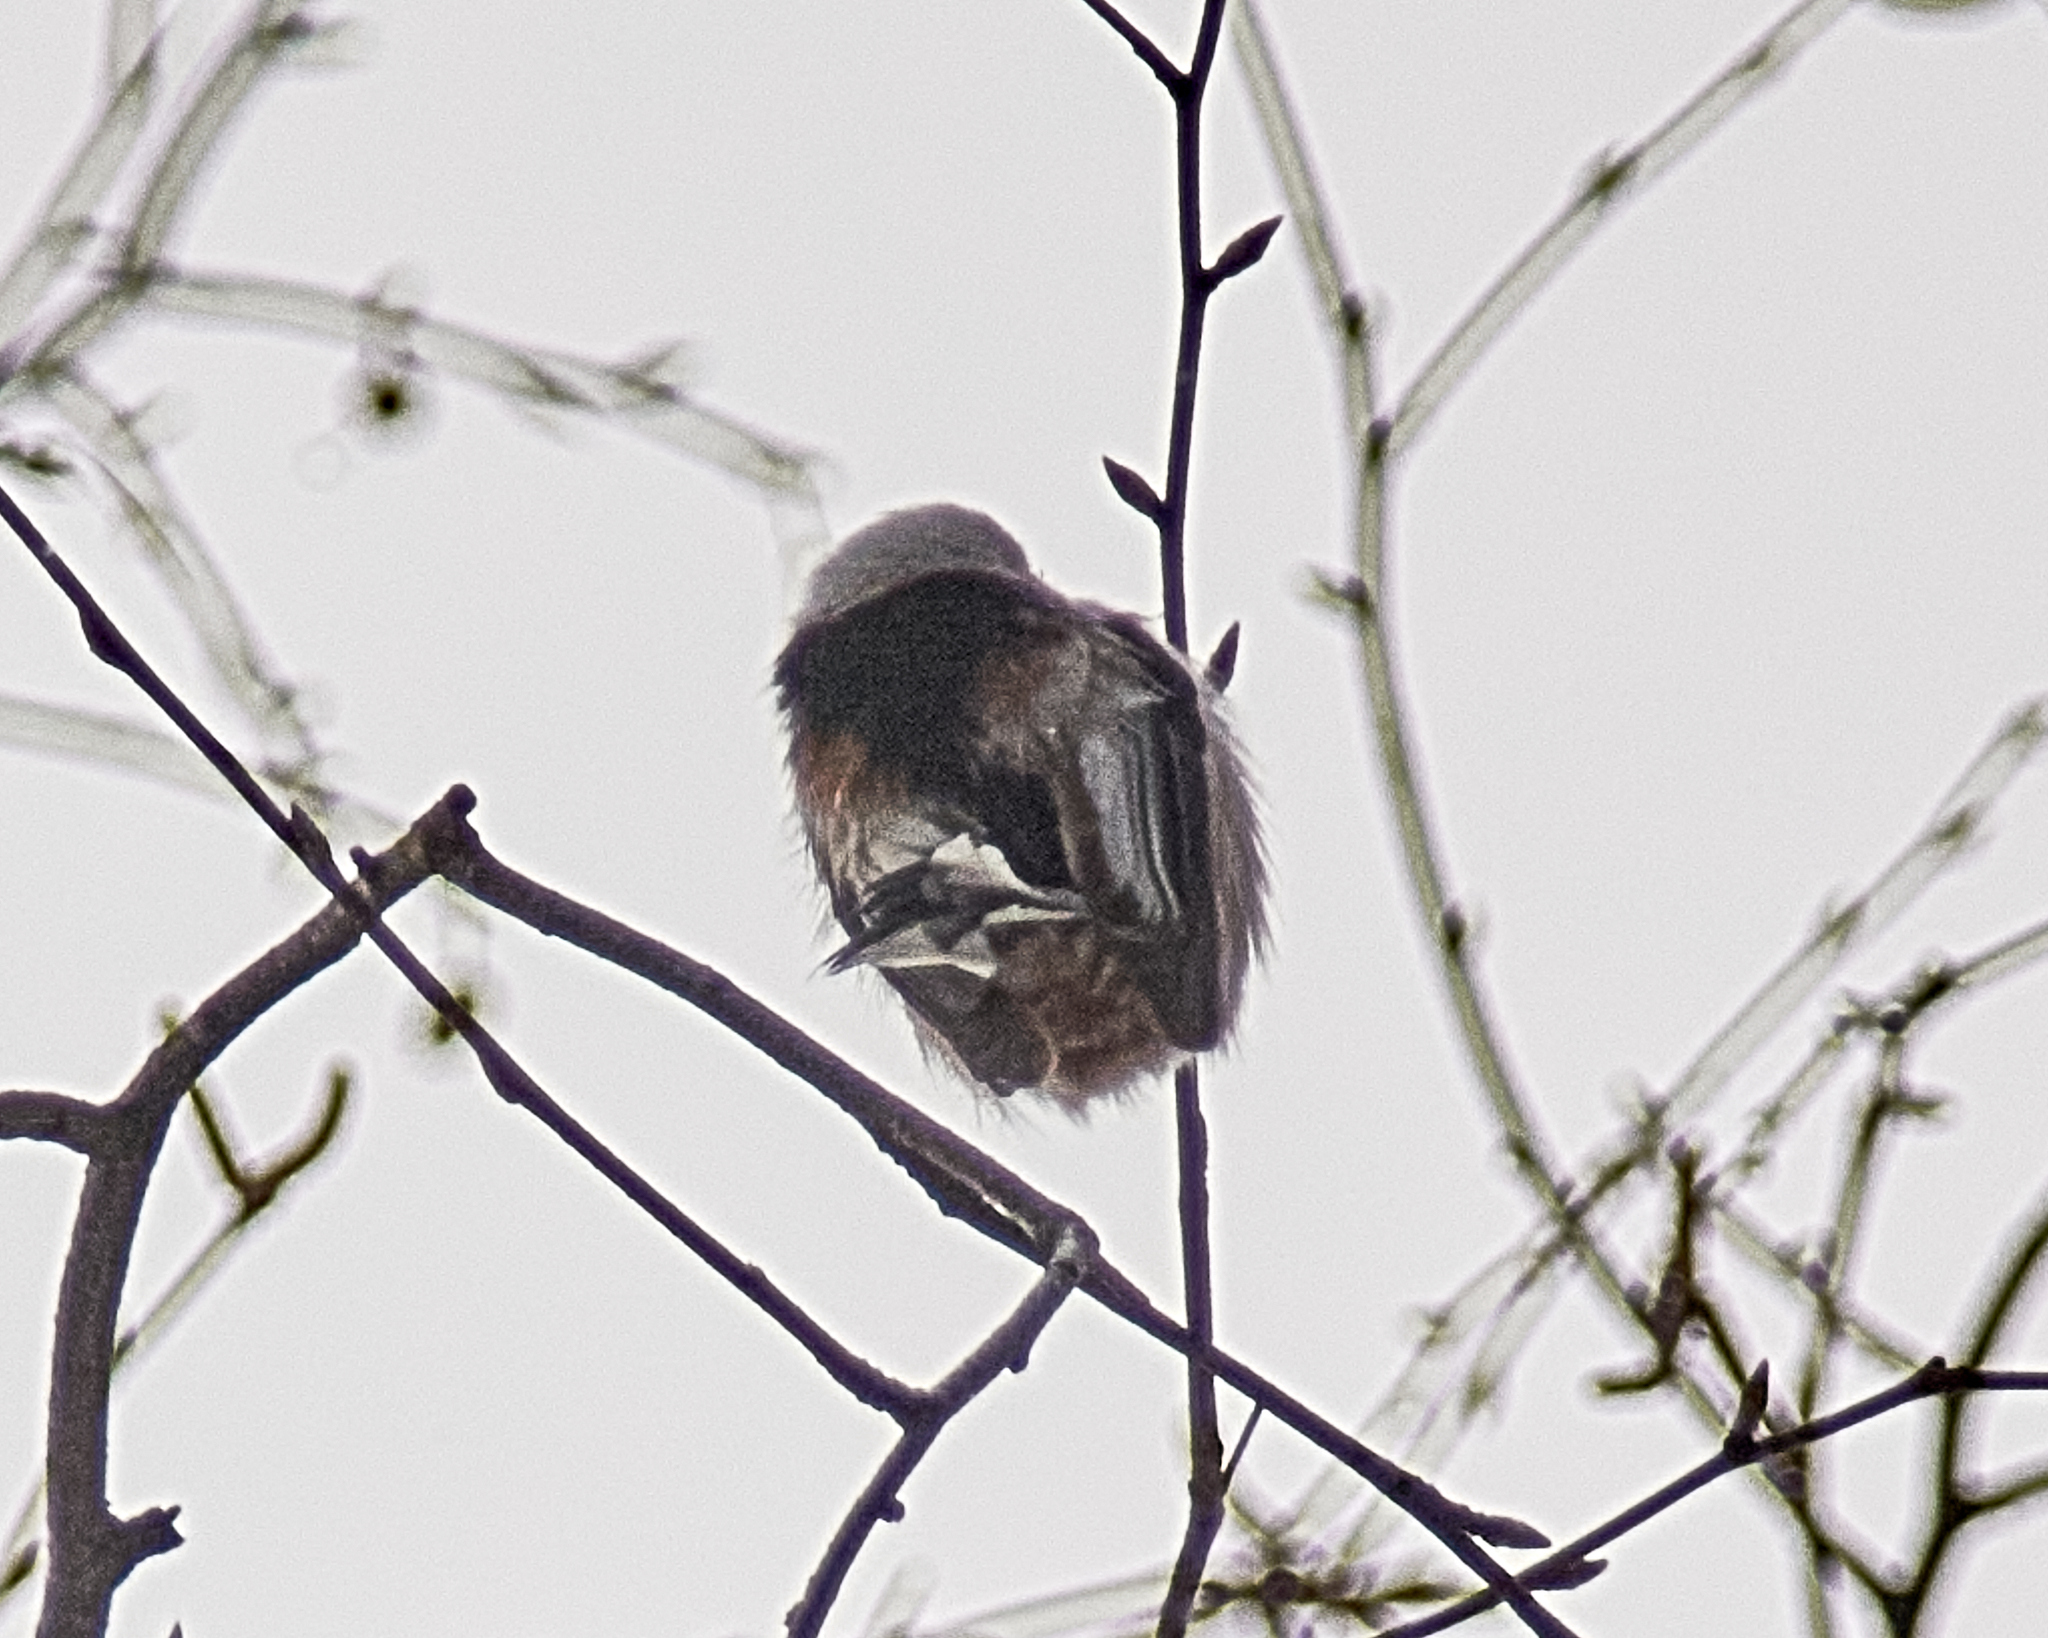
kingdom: Animalia
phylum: Chordata
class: Aves
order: Passeriformes
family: Aegithalidae
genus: Aegithalos
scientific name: Aegithalos caudatus
